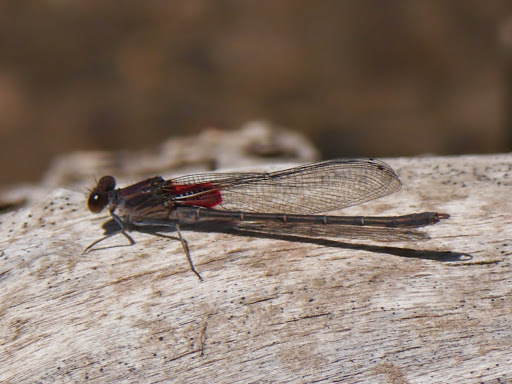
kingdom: Animalia
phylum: Arthropoda
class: Insecta
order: Odonata
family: Calopterygidae
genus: Hetaerina
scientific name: Hetaerina americana
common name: American rubyspot
